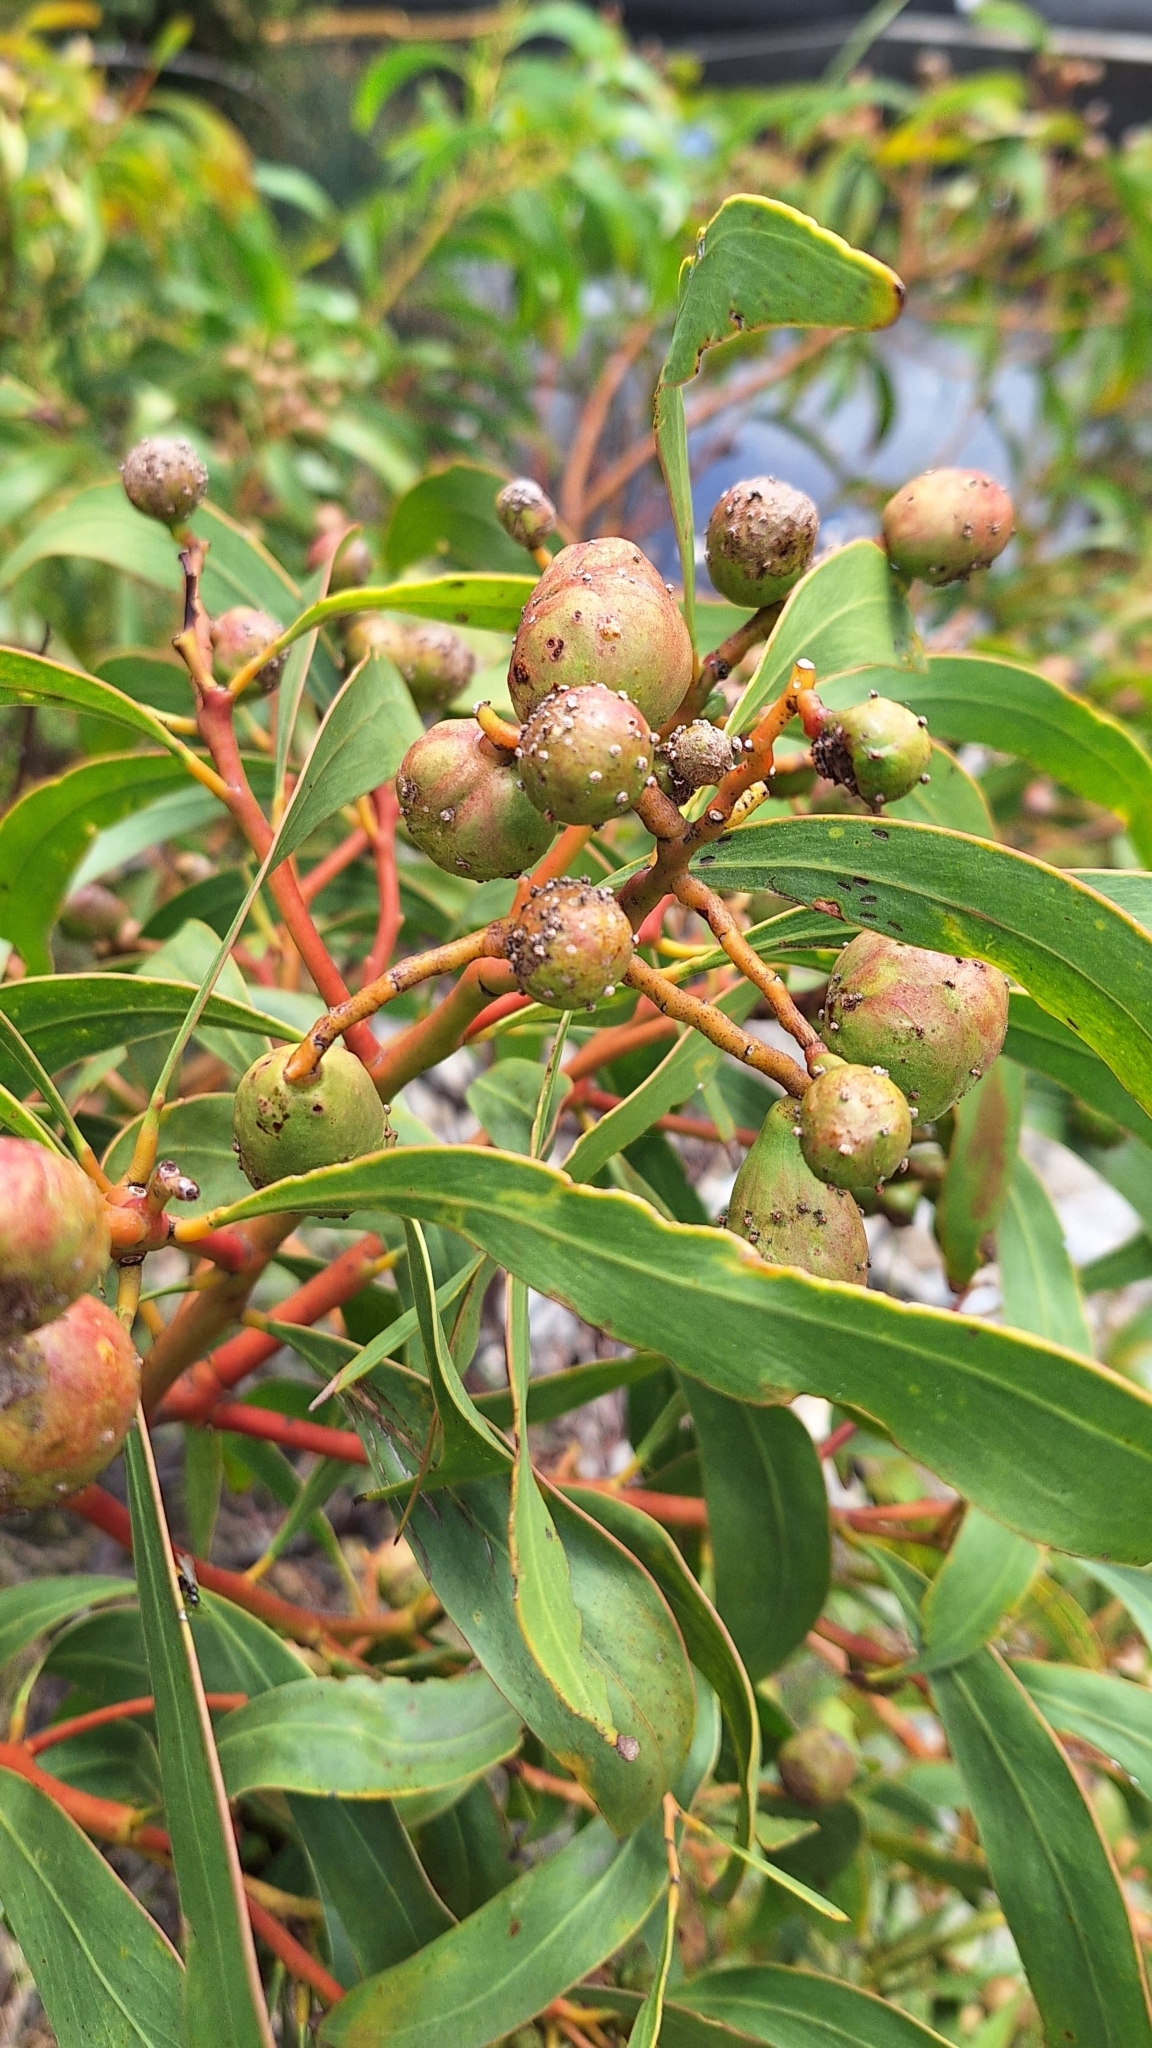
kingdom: Animalia
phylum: Arthropoda
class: Insecta
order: Hymenoptera
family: Pteromalidae
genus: Trichilogaster
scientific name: Trichilogaster signiventris
